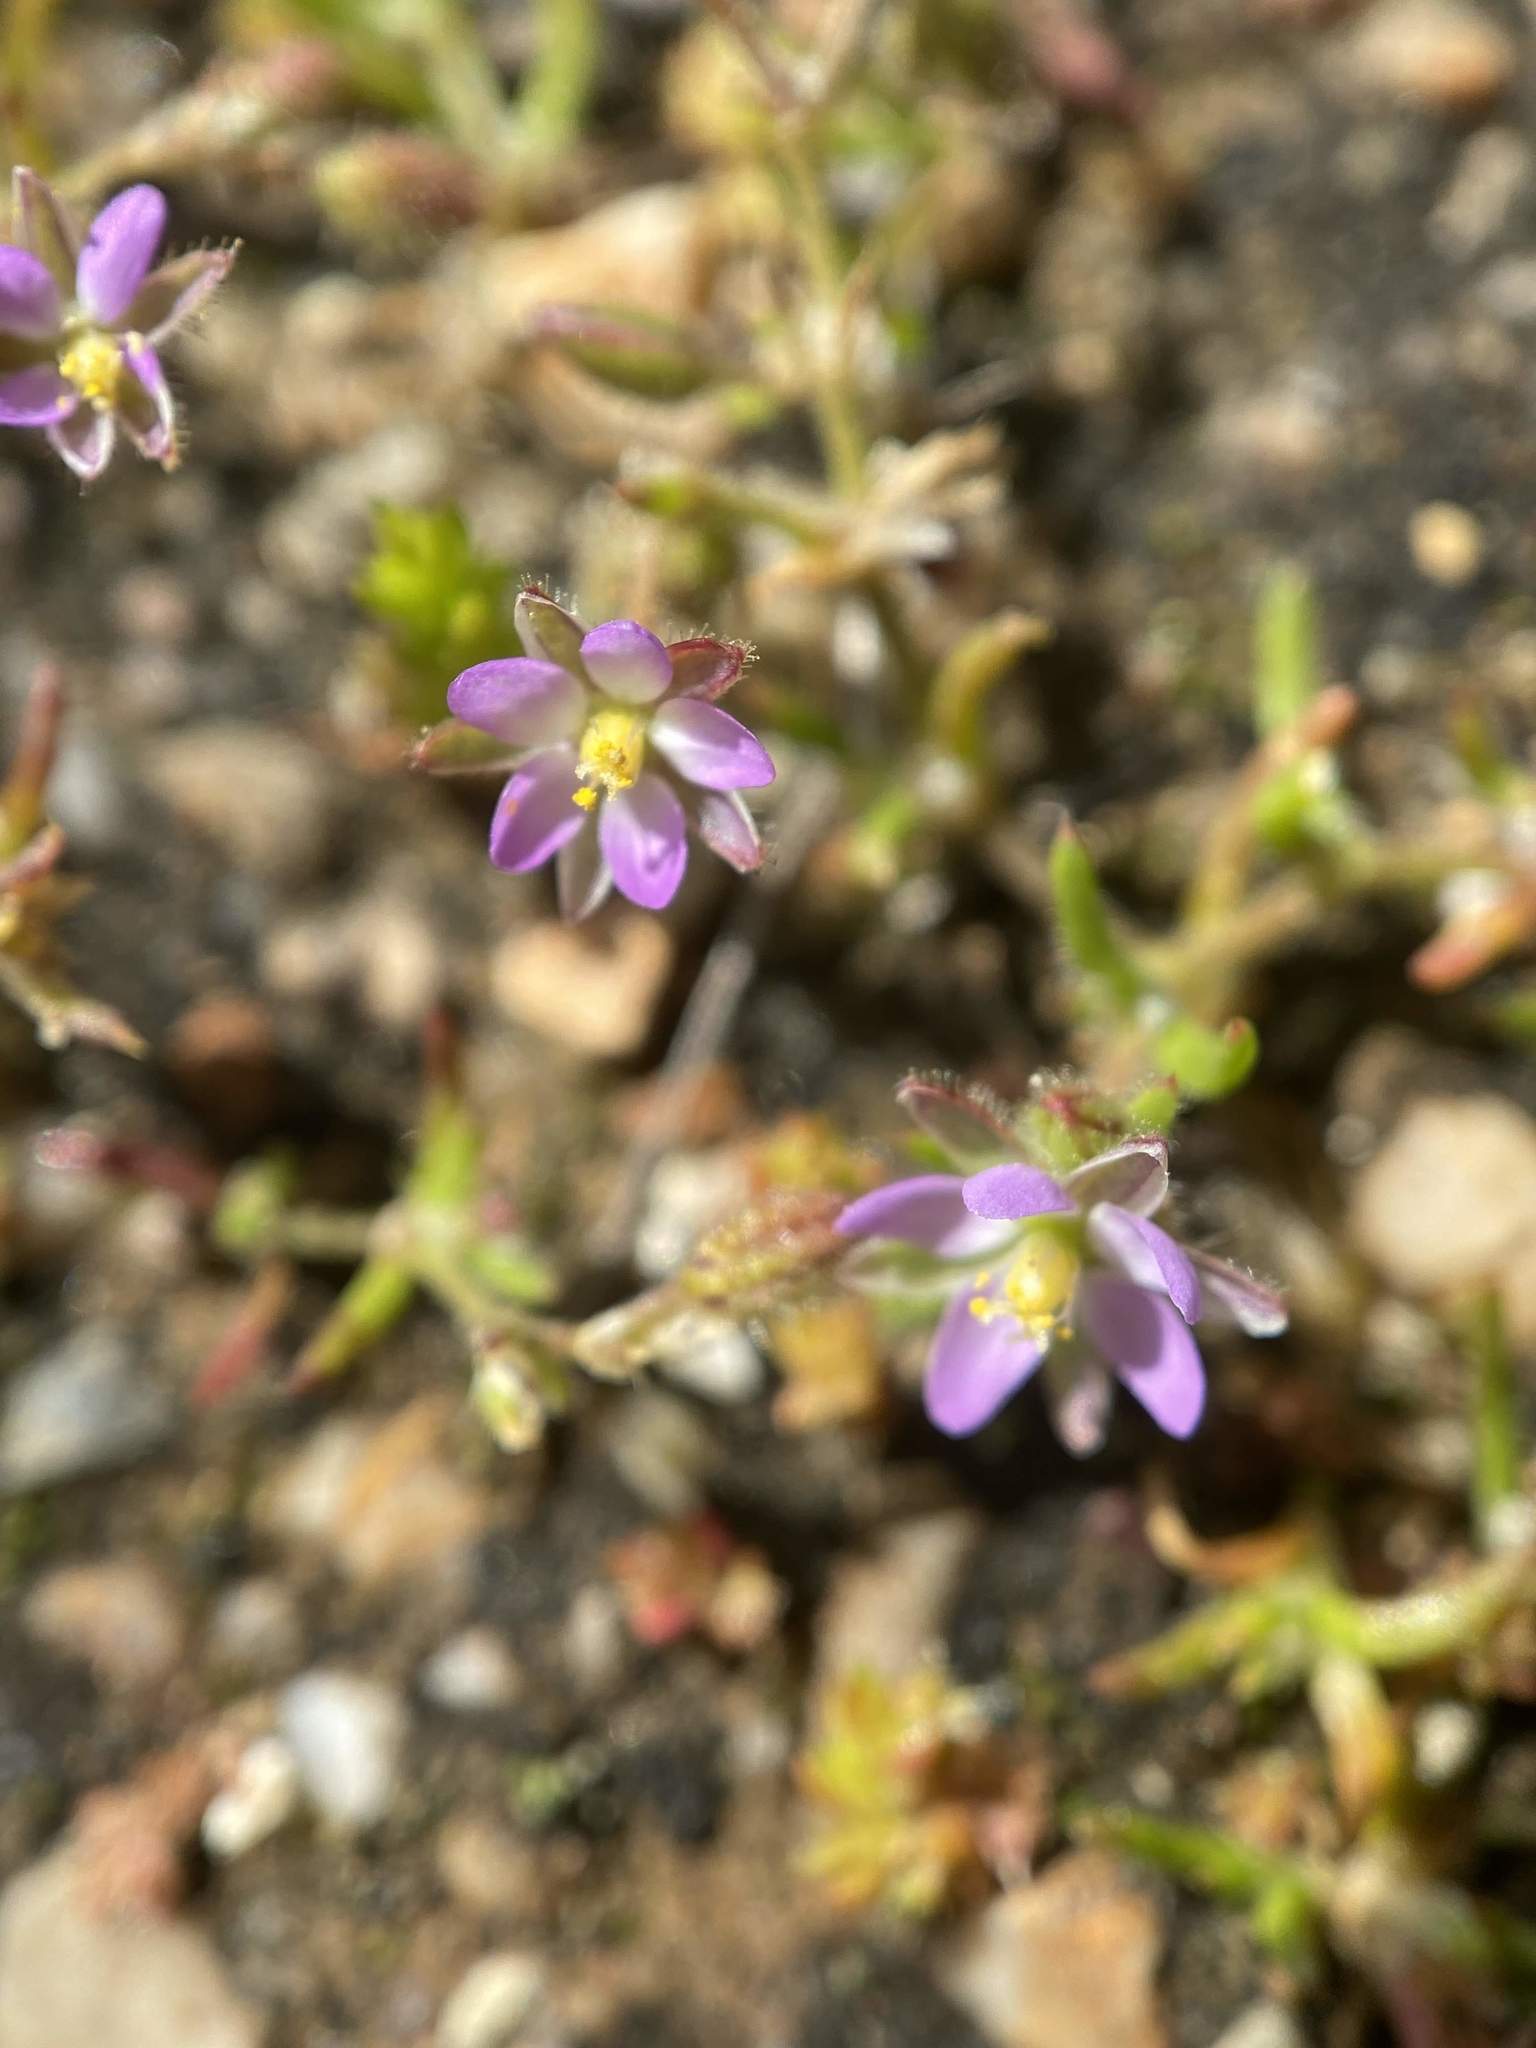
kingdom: Plantae
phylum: Tracheophyta
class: Magnoliopsida
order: Caryophyllales
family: Caryophyllaceae
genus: Spergularia
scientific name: Spergularia rubra
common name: Red sand-spurrey
